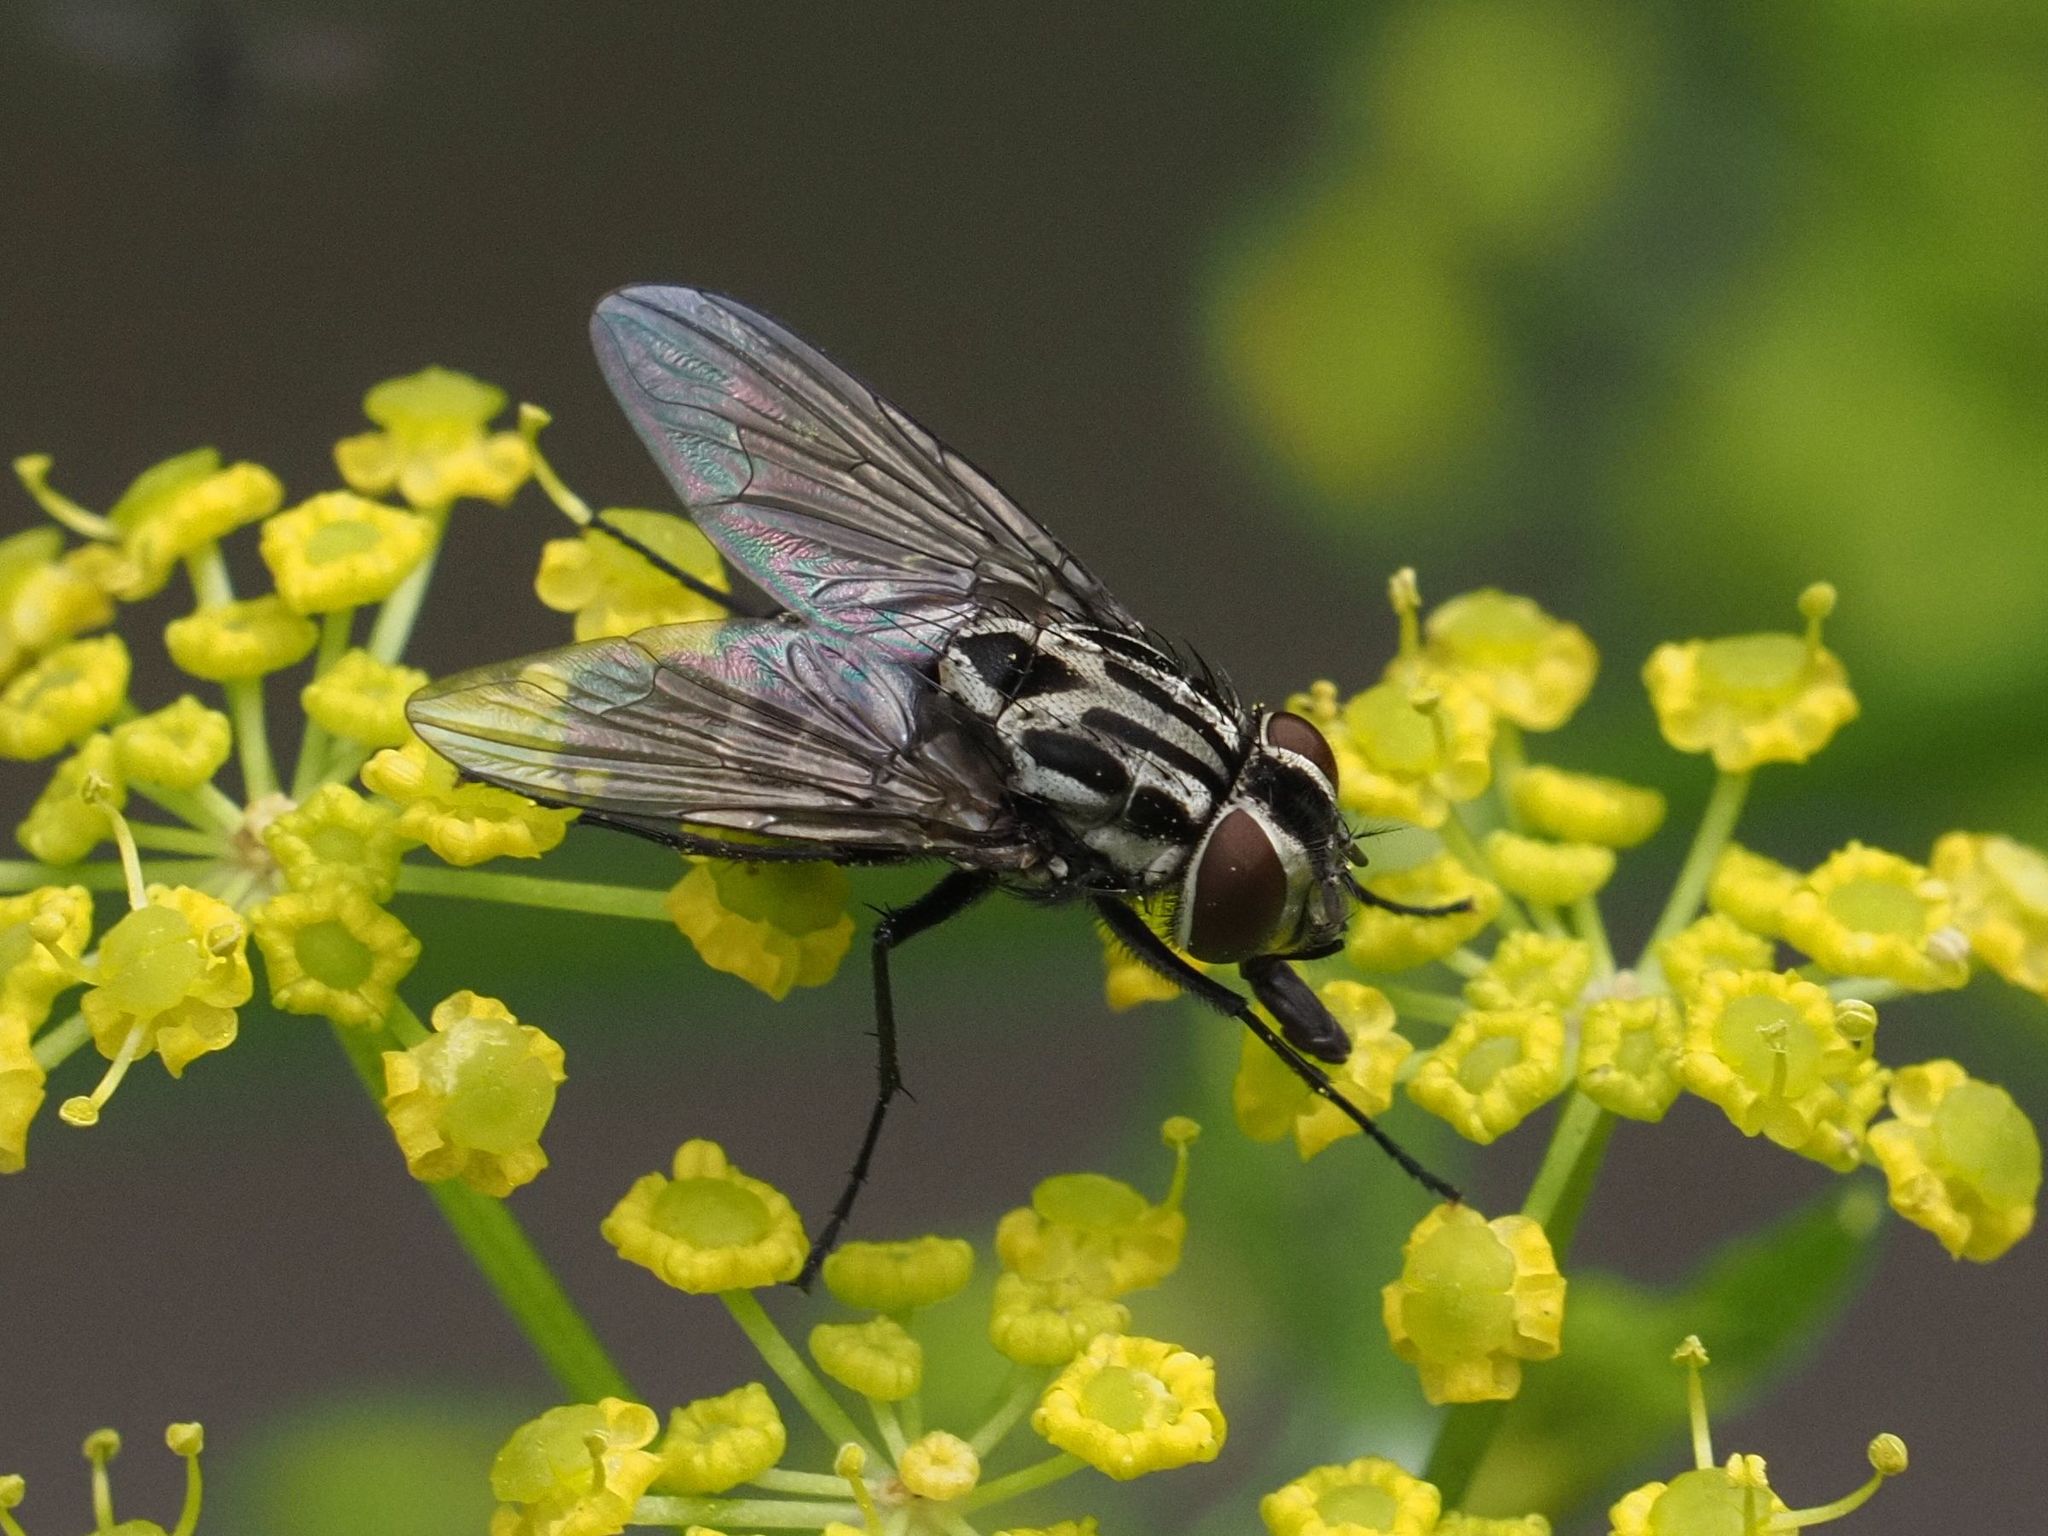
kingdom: Animalia
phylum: Arthropoda
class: Insecta
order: Diptera
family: Muscidae
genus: Graphomya
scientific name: Graphomya maculata
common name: Muscid fly
